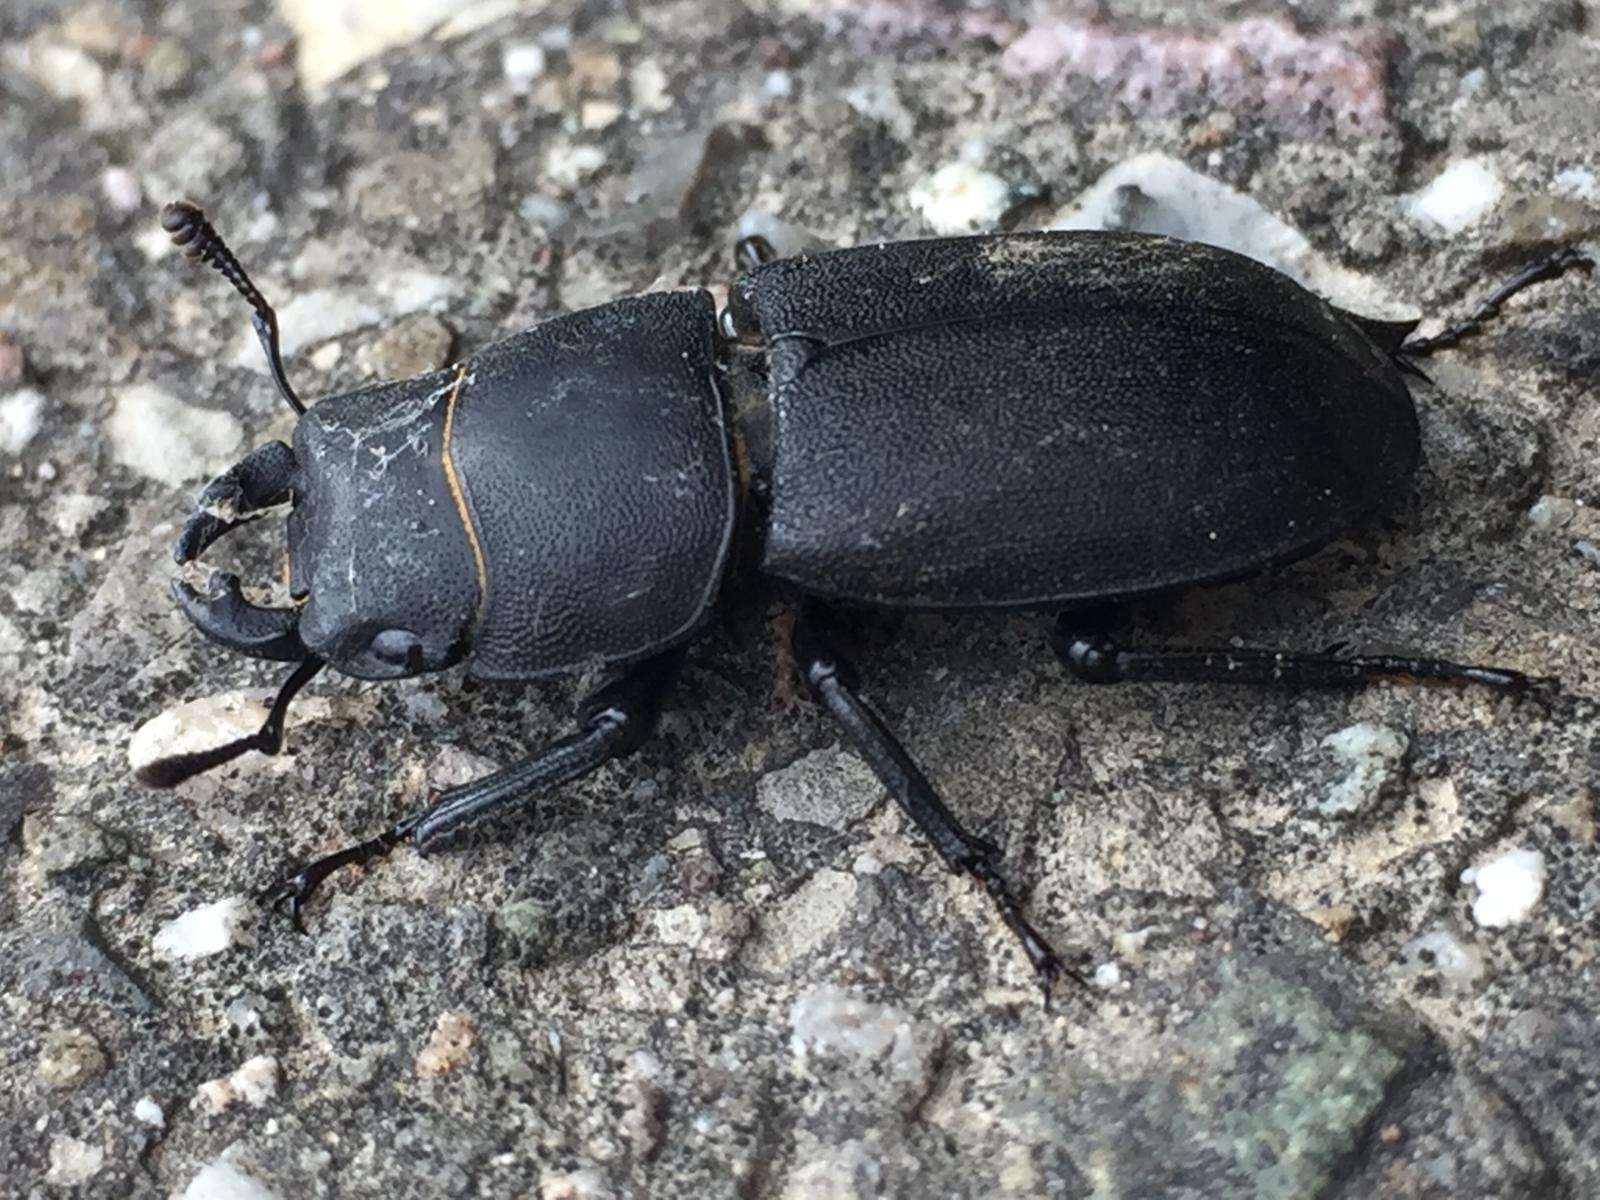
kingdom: Animalia
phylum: Arthropoda
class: Insecta
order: Coleoptera
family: Lucanidae
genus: Dorcus
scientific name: Dorcus parallelipipedus
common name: Lesser stag beetle
